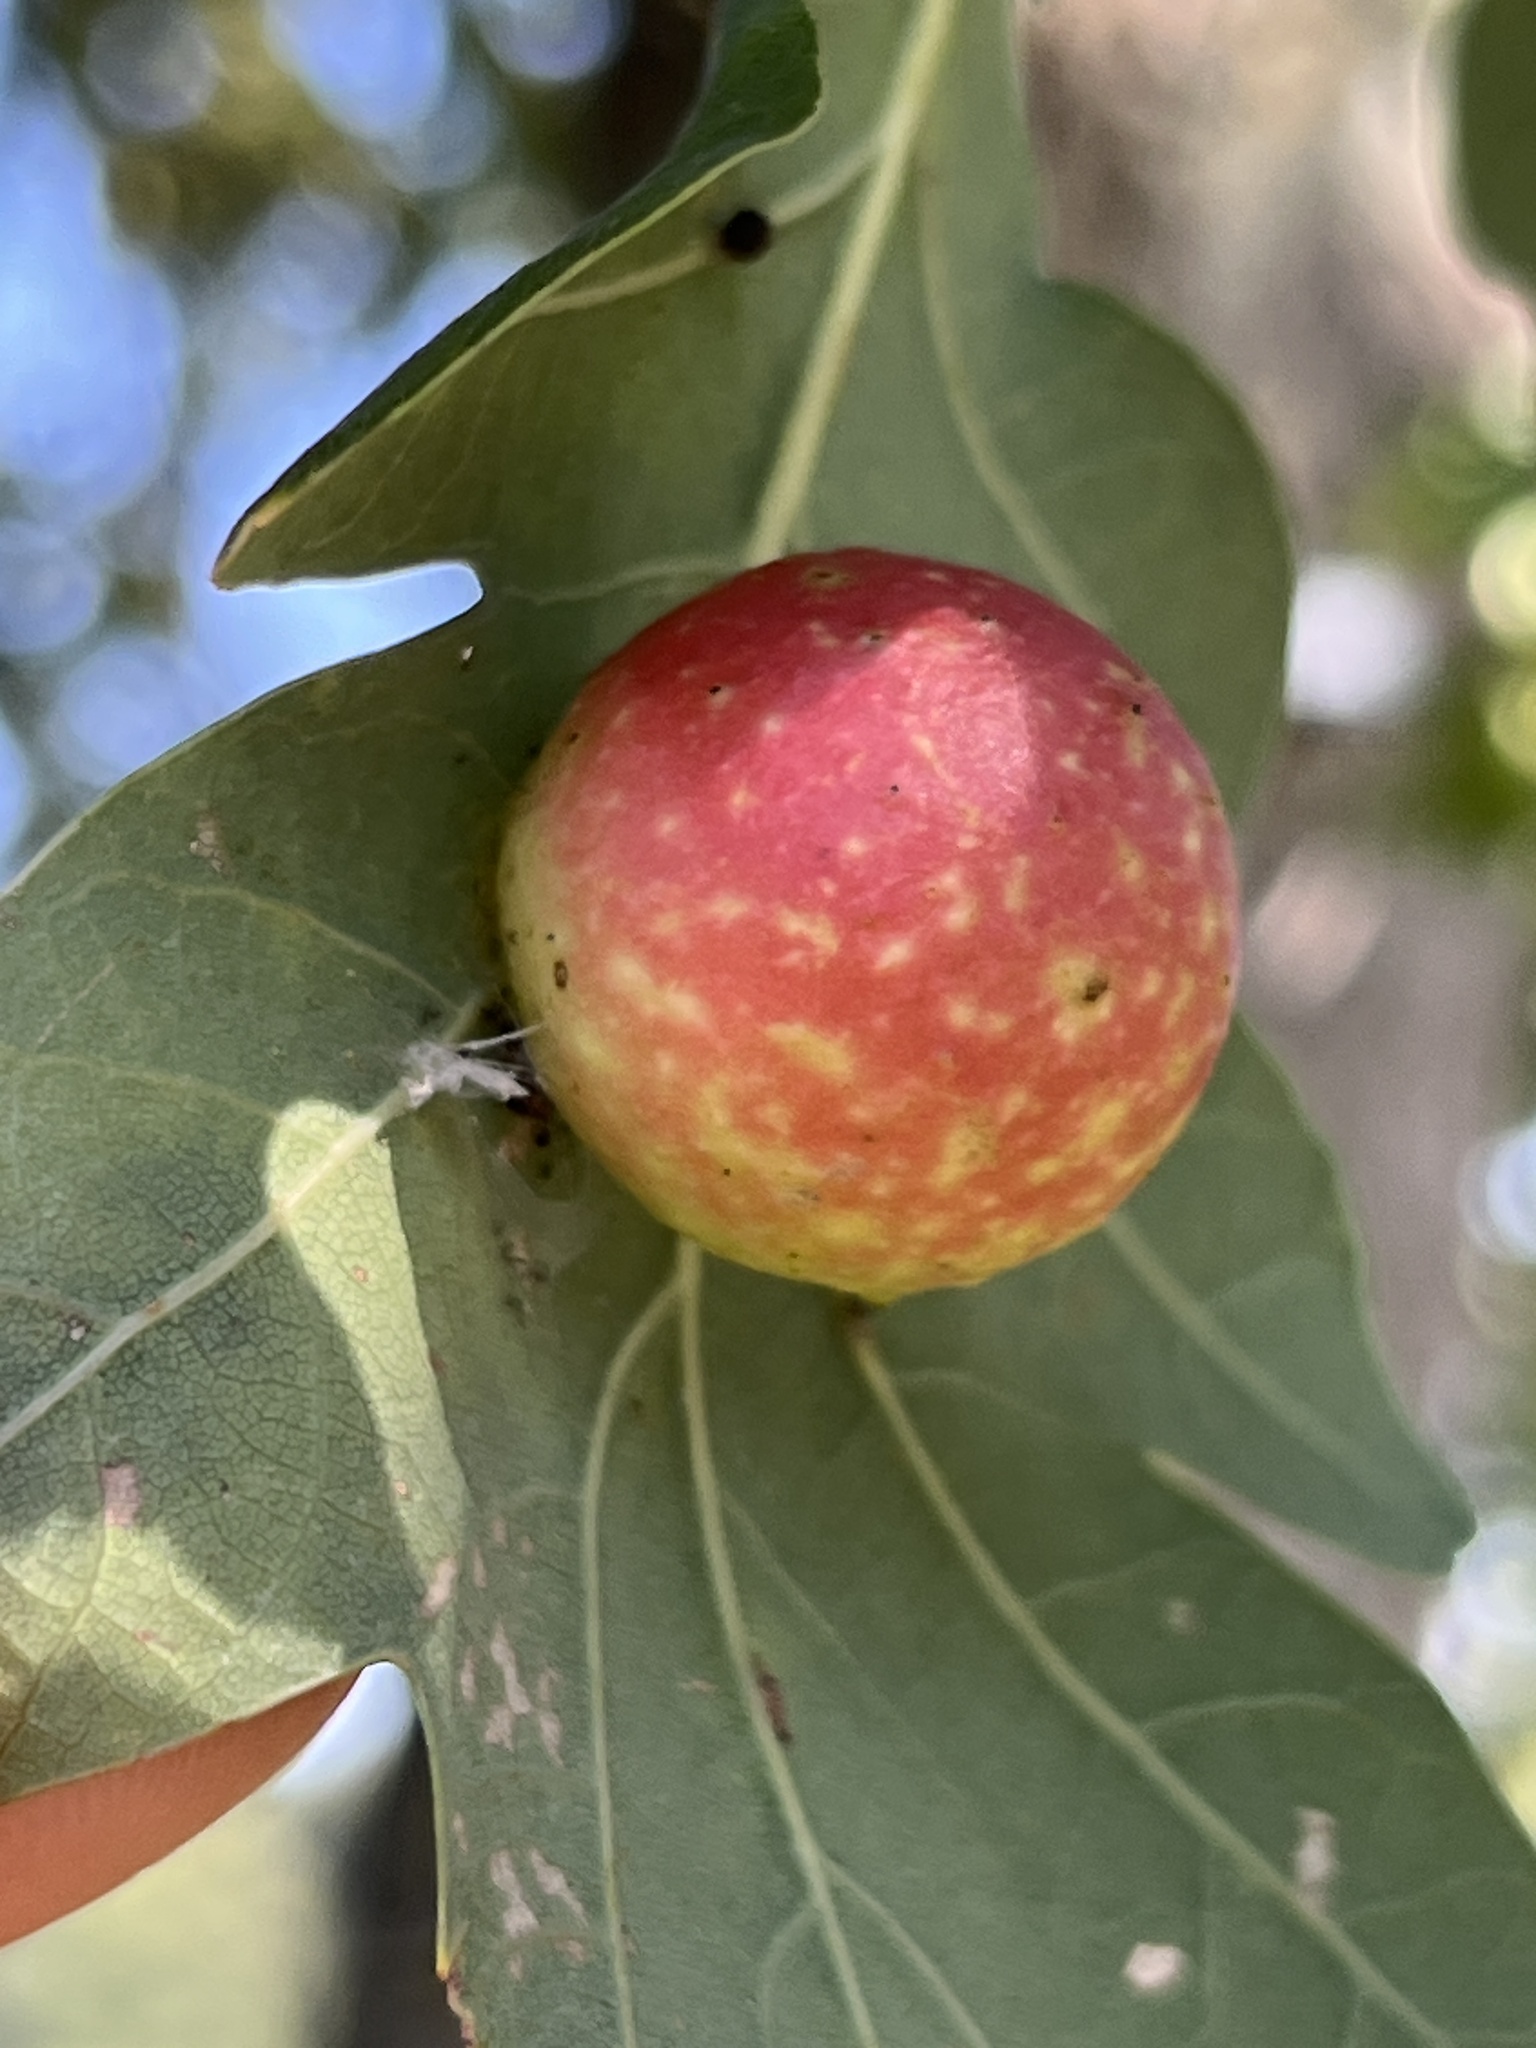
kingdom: Animalia
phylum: Arthropoda
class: Insecta
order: Hymenoptera
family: Cynipidae
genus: Cynips
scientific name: Cynips quercusfolii
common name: Cherry gall
